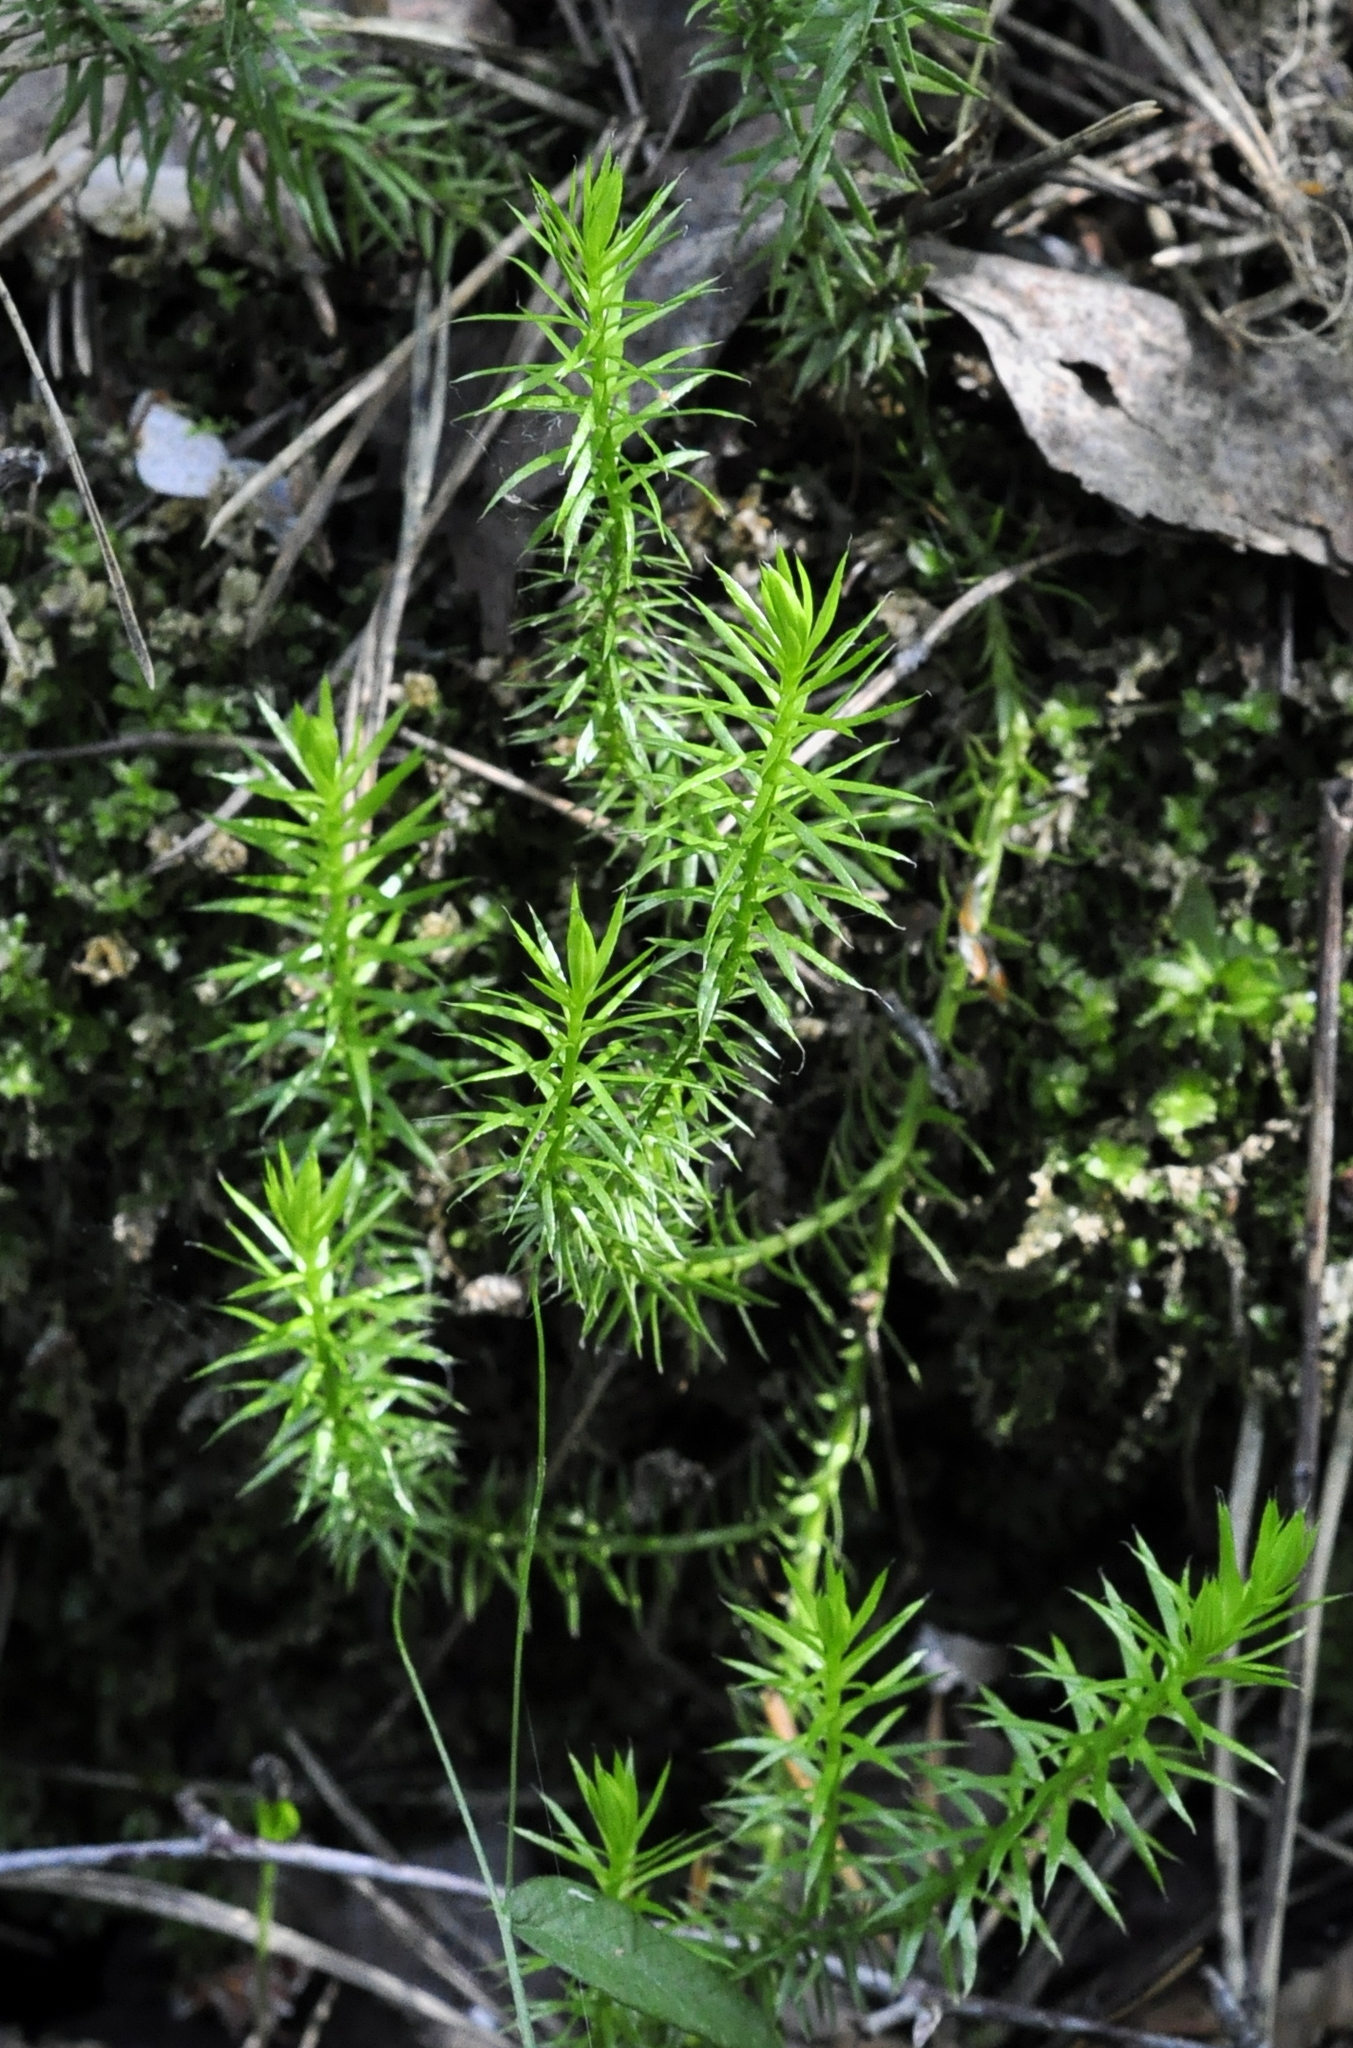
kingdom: Plantae
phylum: Tracheophyta
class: Lycopodiopsida
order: Lycopodiales
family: Lycopodiaceae
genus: Spinulum
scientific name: Spinulum annotinum
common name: Interrupted club-moss
